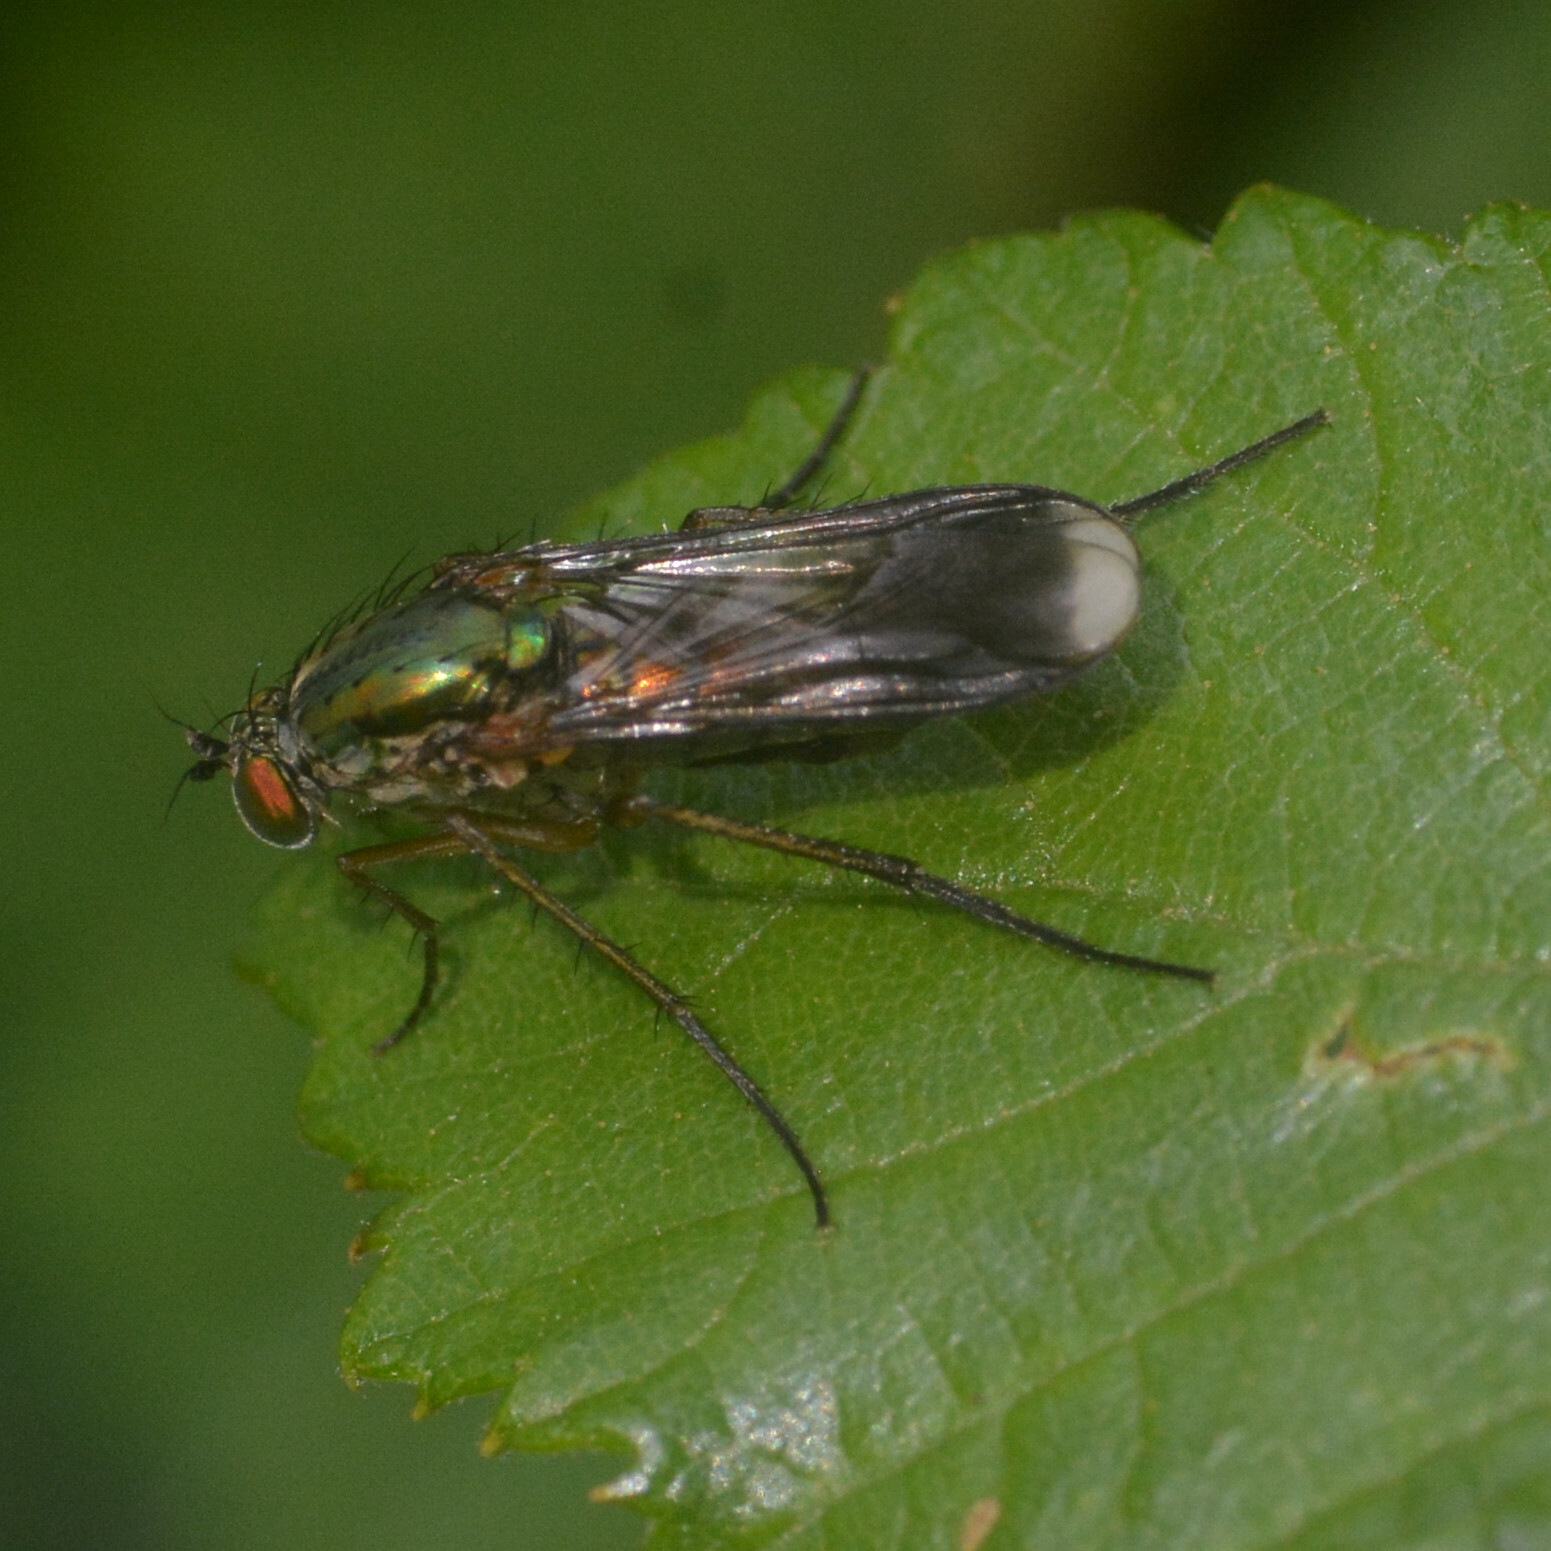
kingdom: Animalia
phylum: Arthropoda
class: Insecta
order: Diptera
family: Dolichopodidae
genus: Poecilobothrus
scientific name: Poecilobothrus nobilitatus
